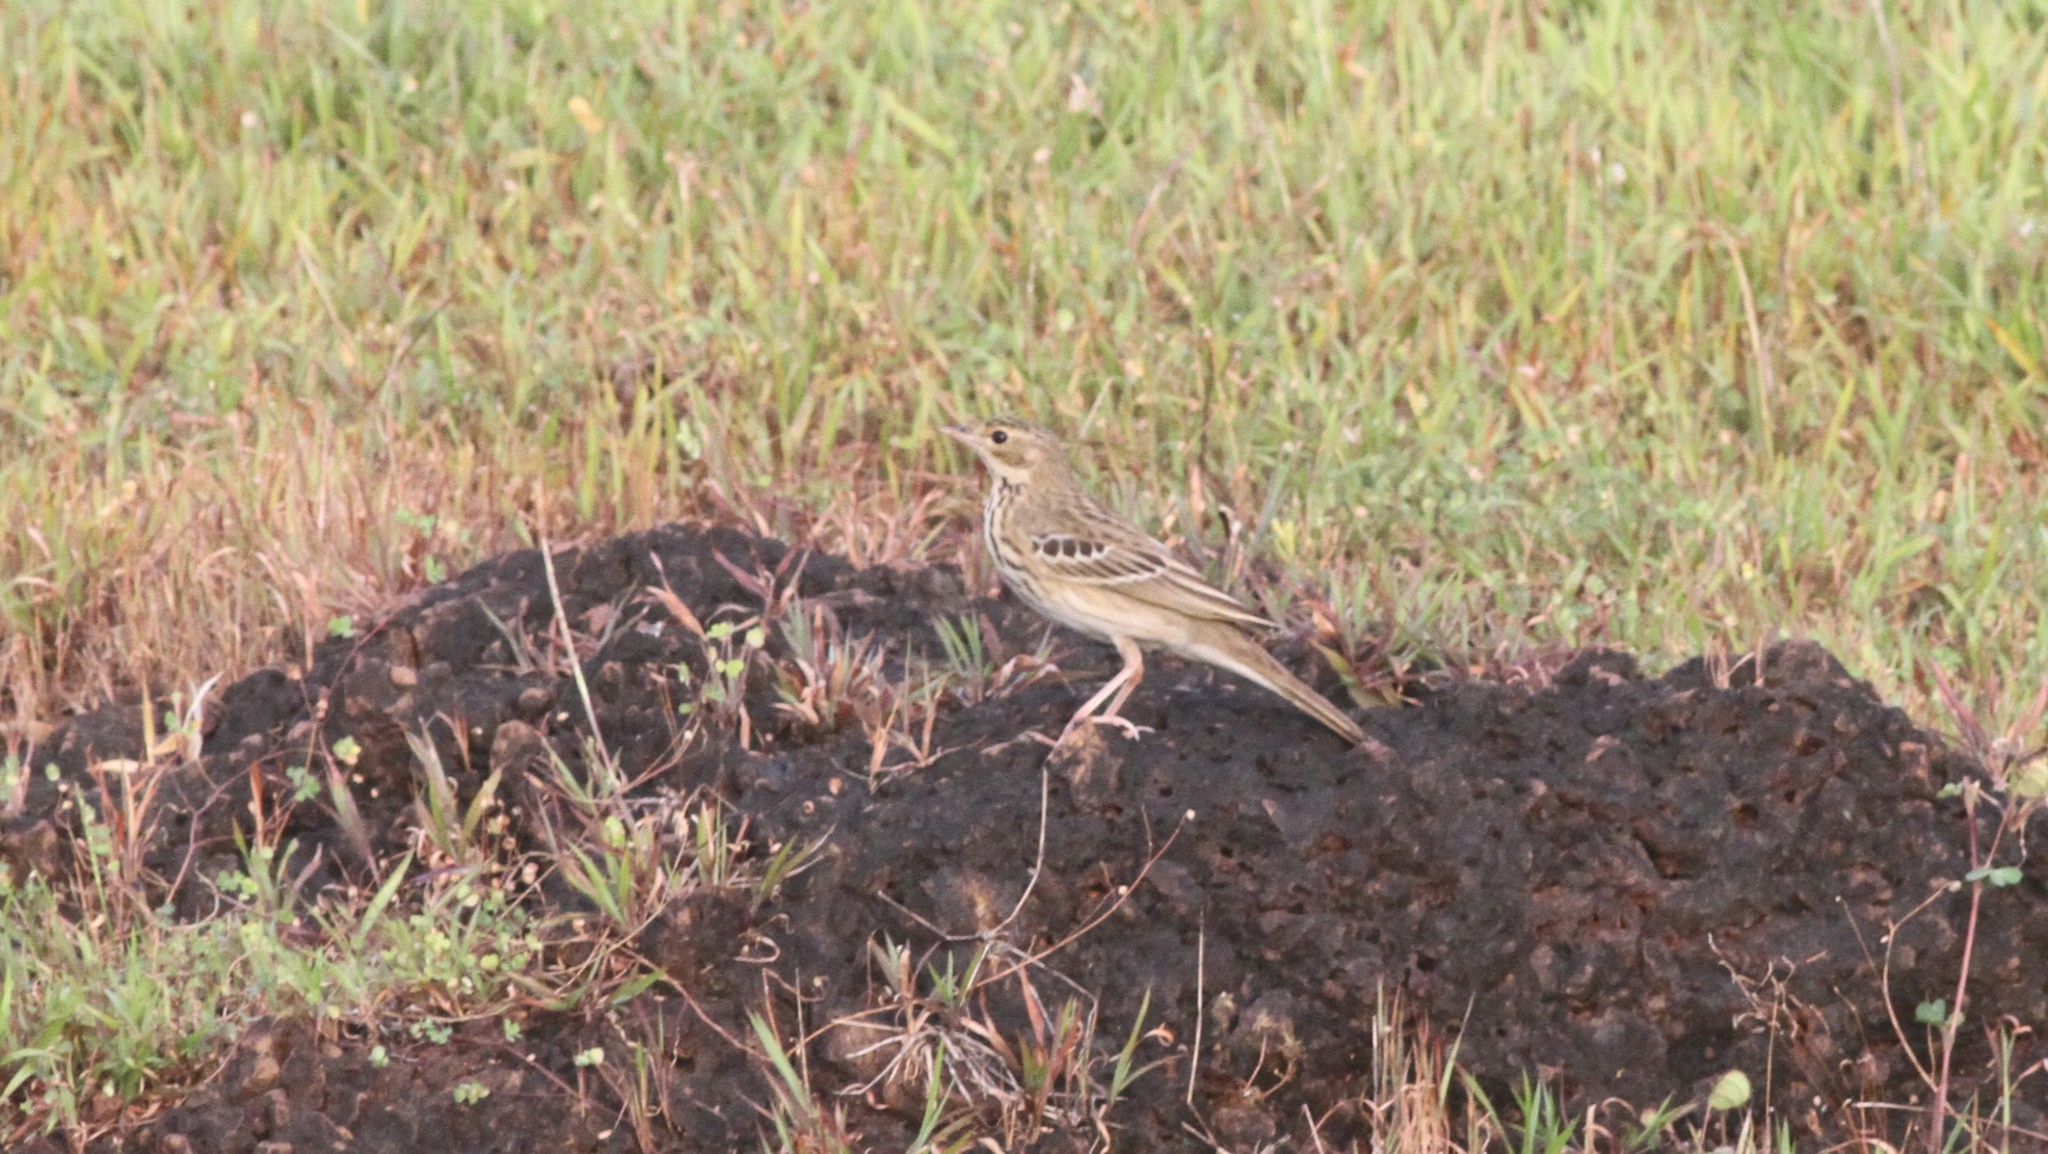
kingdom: Animalia
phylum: Chordata
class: Aves
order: Passeriformes
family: Motacillidae
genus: Anthus
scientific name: Anthus trivialis
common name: Tree pipit
